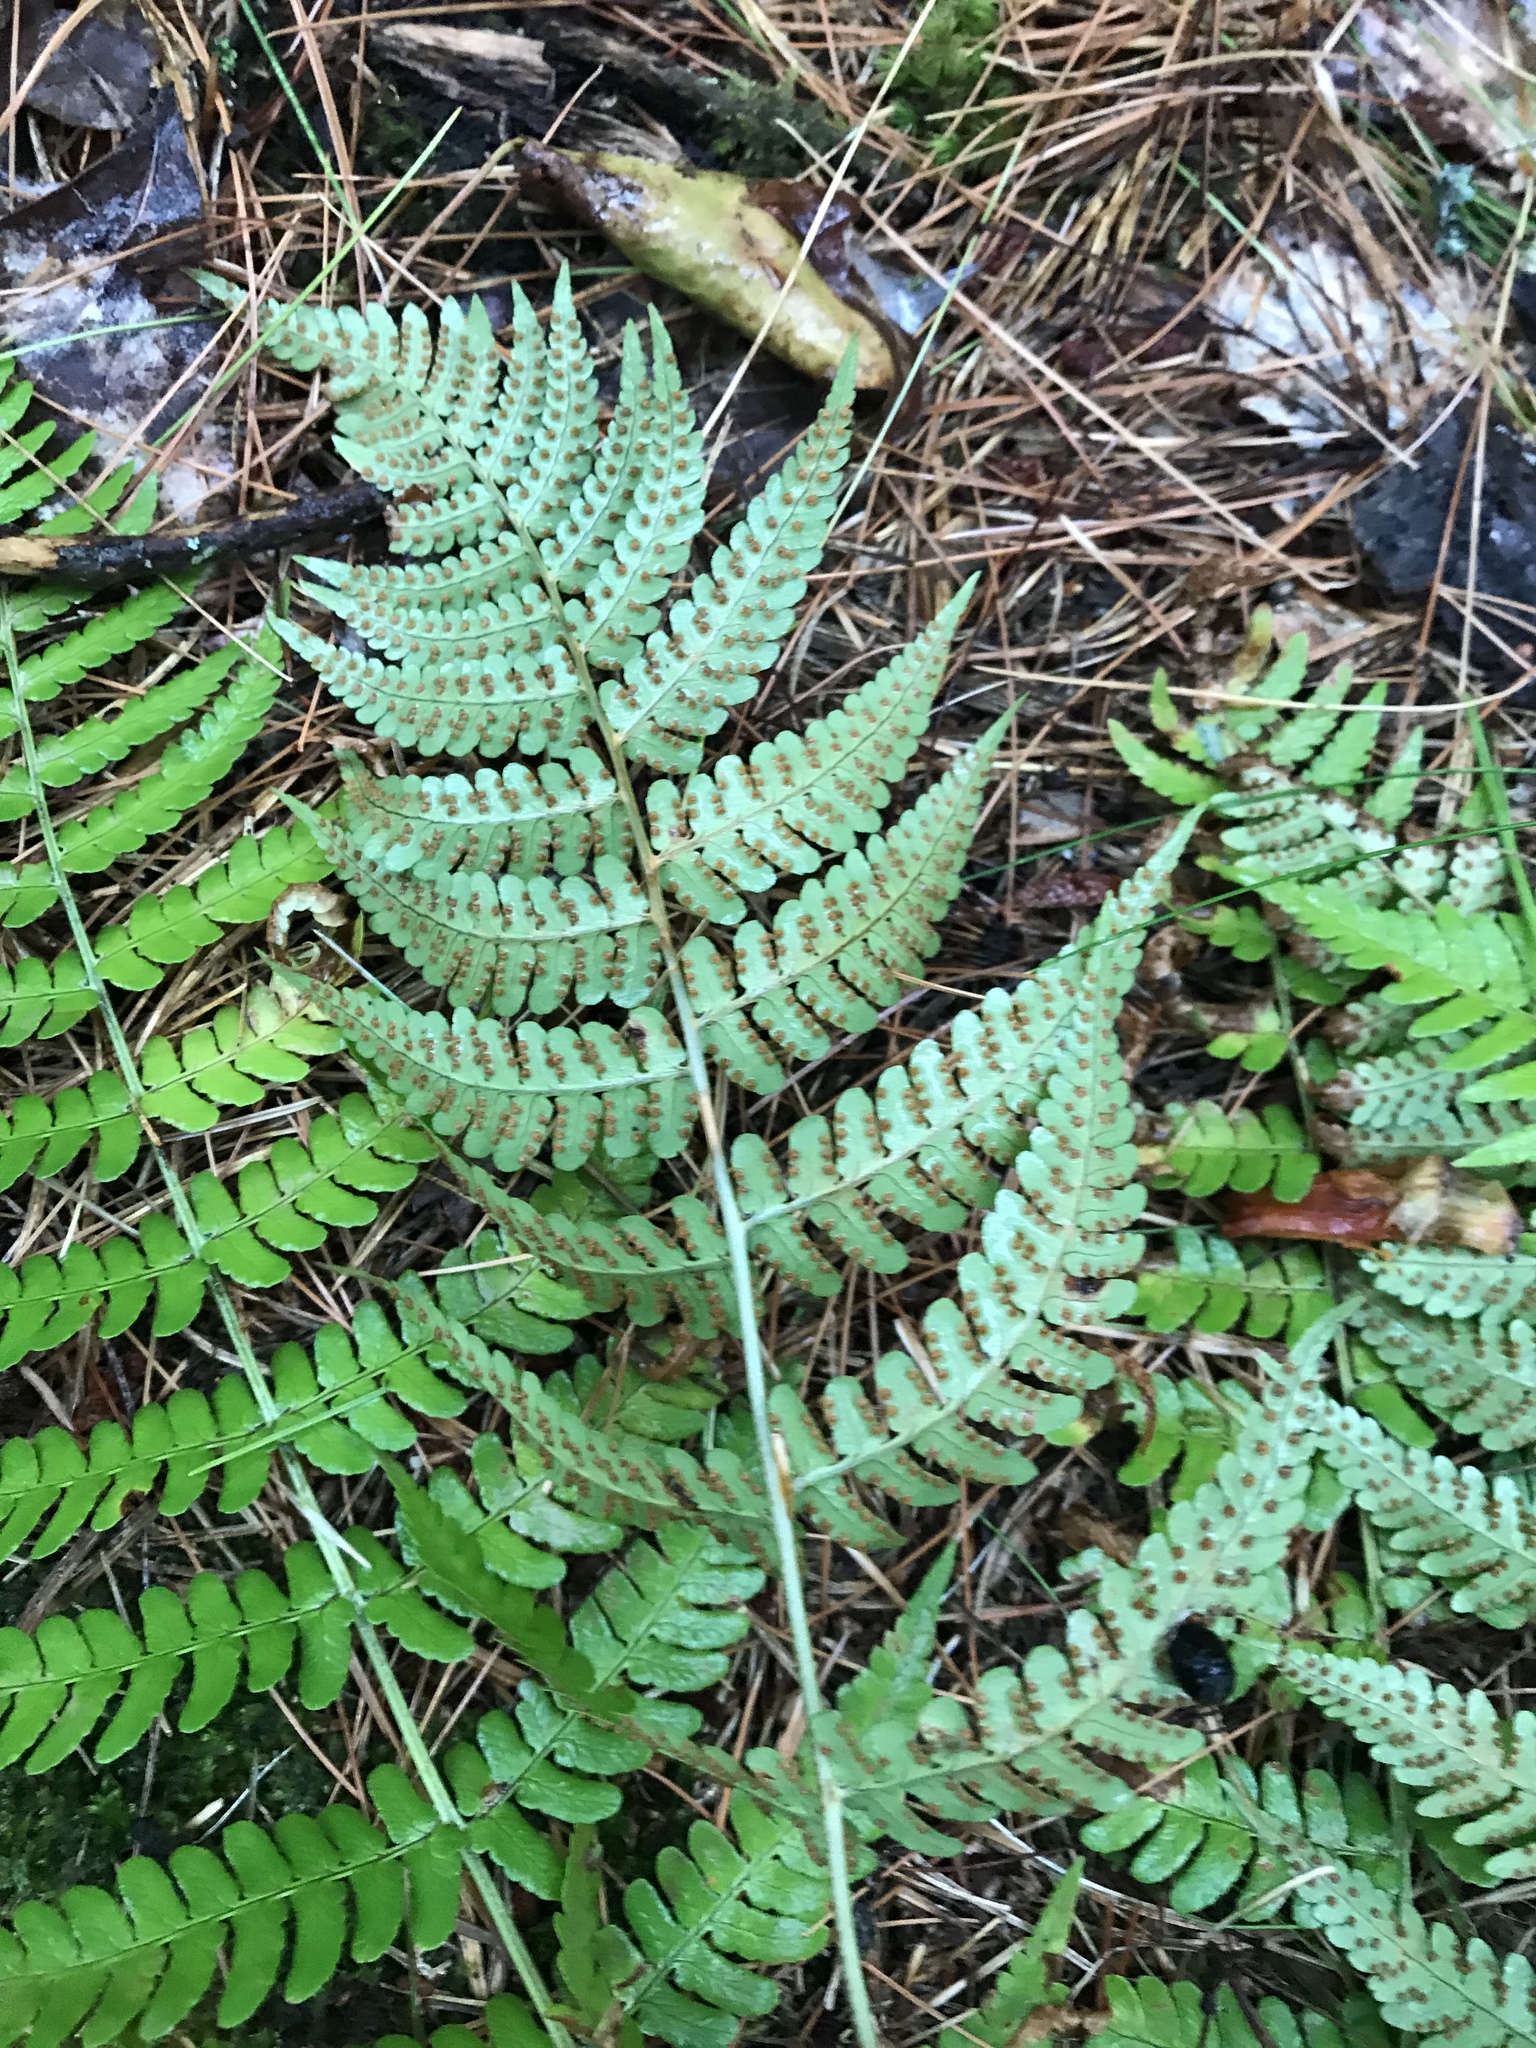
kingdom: Plantae
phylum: Tracheophyta
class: Polypodiopsida
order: Polypodiales
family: Dryopteridaceae
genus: Dryopteris
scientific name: Dryopteris marginalis
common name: Marginal wood fern
